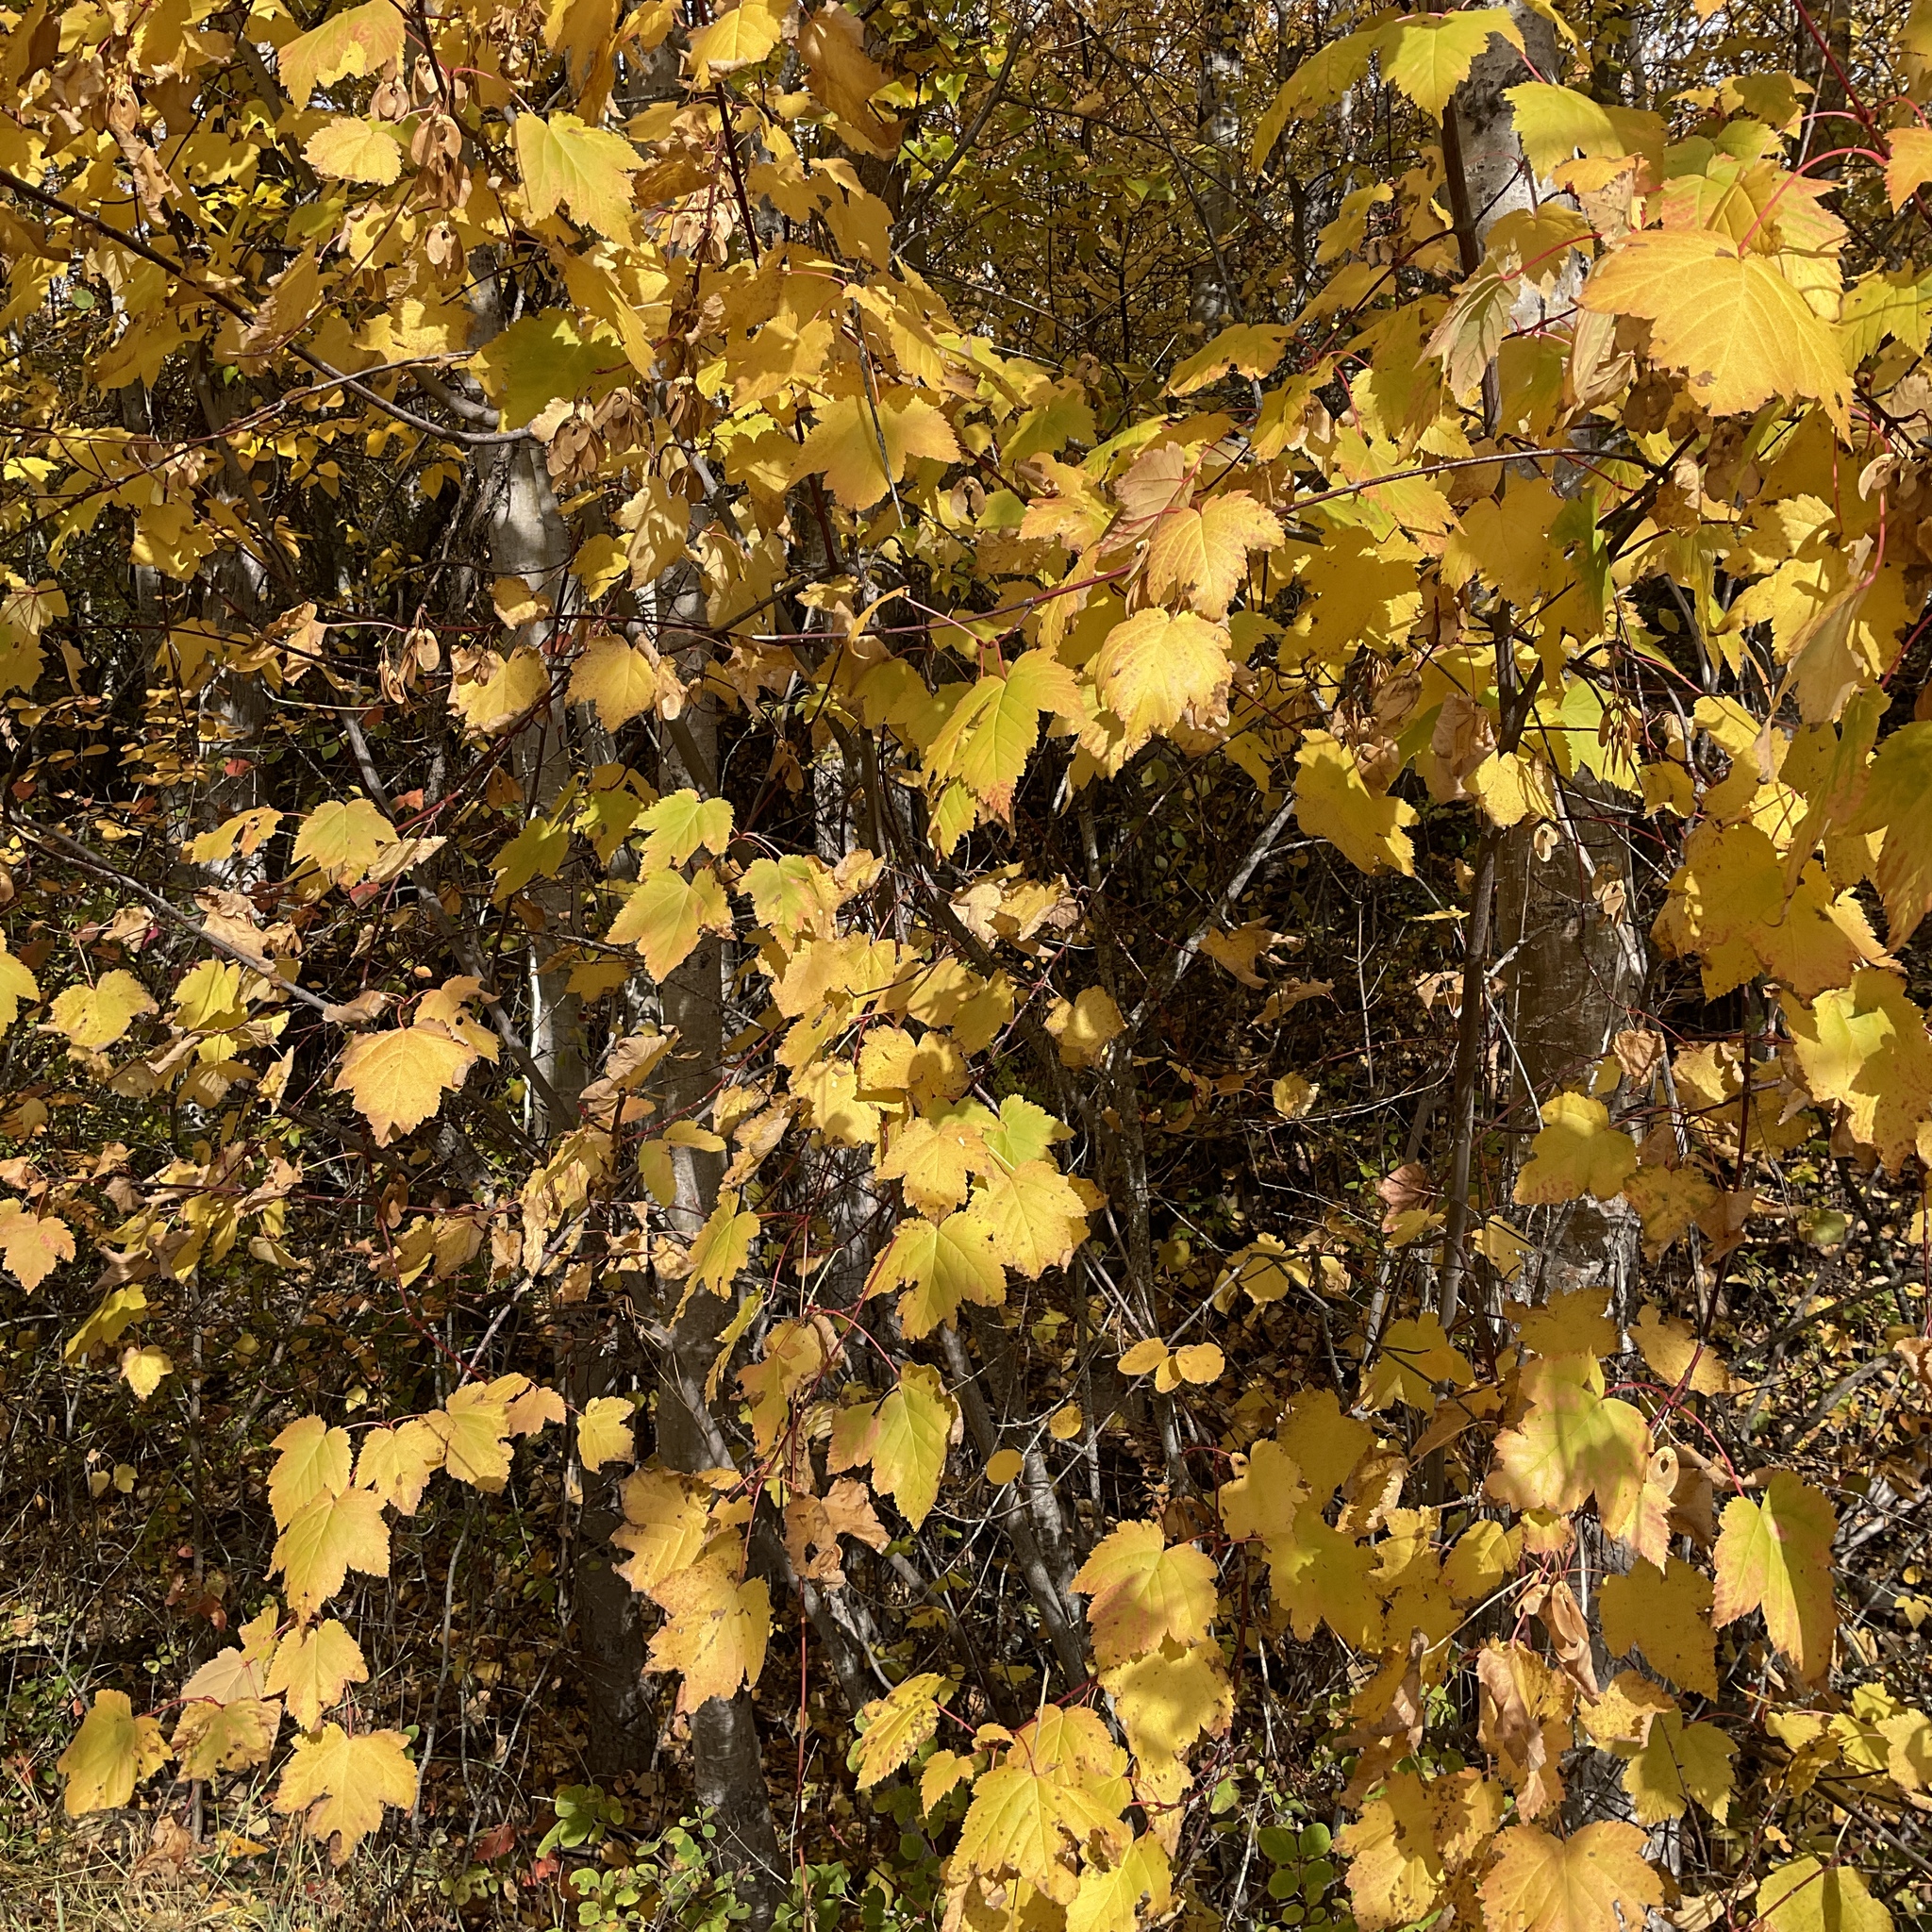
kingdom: Plantae
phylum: Tracheophyta
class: Magnoliopsida
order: Sapindales
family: Sapindaceae
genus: Acer
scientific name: Acer glabrum
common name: Rocky mountain maple
